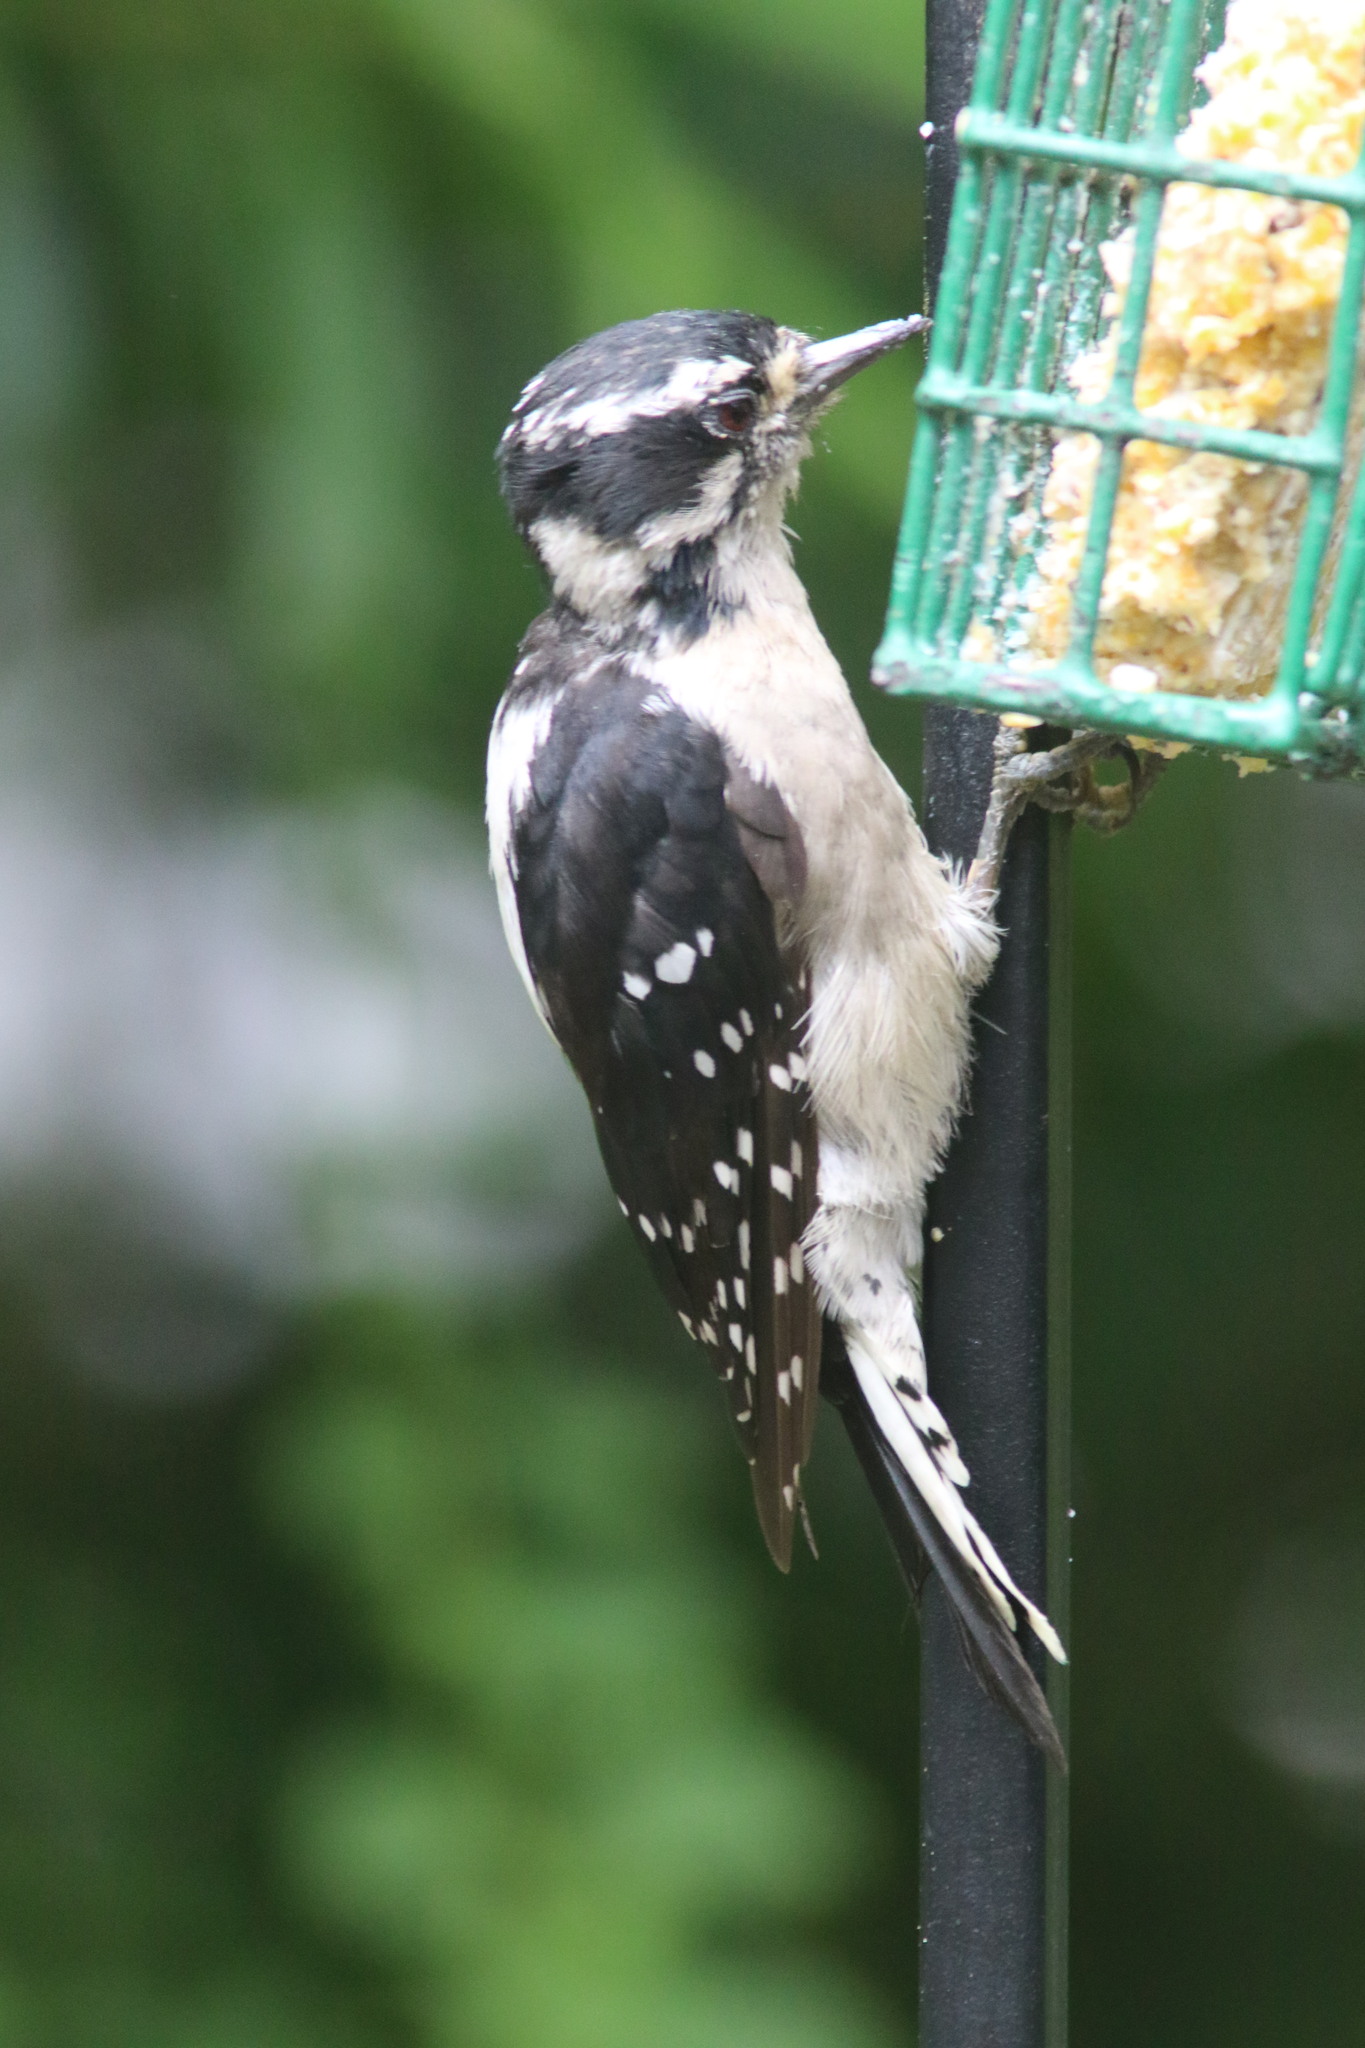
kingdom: Animalia
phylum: Chordata
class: Aves
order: Piciformes
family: Picidae
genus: Dryobates
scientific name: Dryobates pubescens
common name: Downy woodpecker
